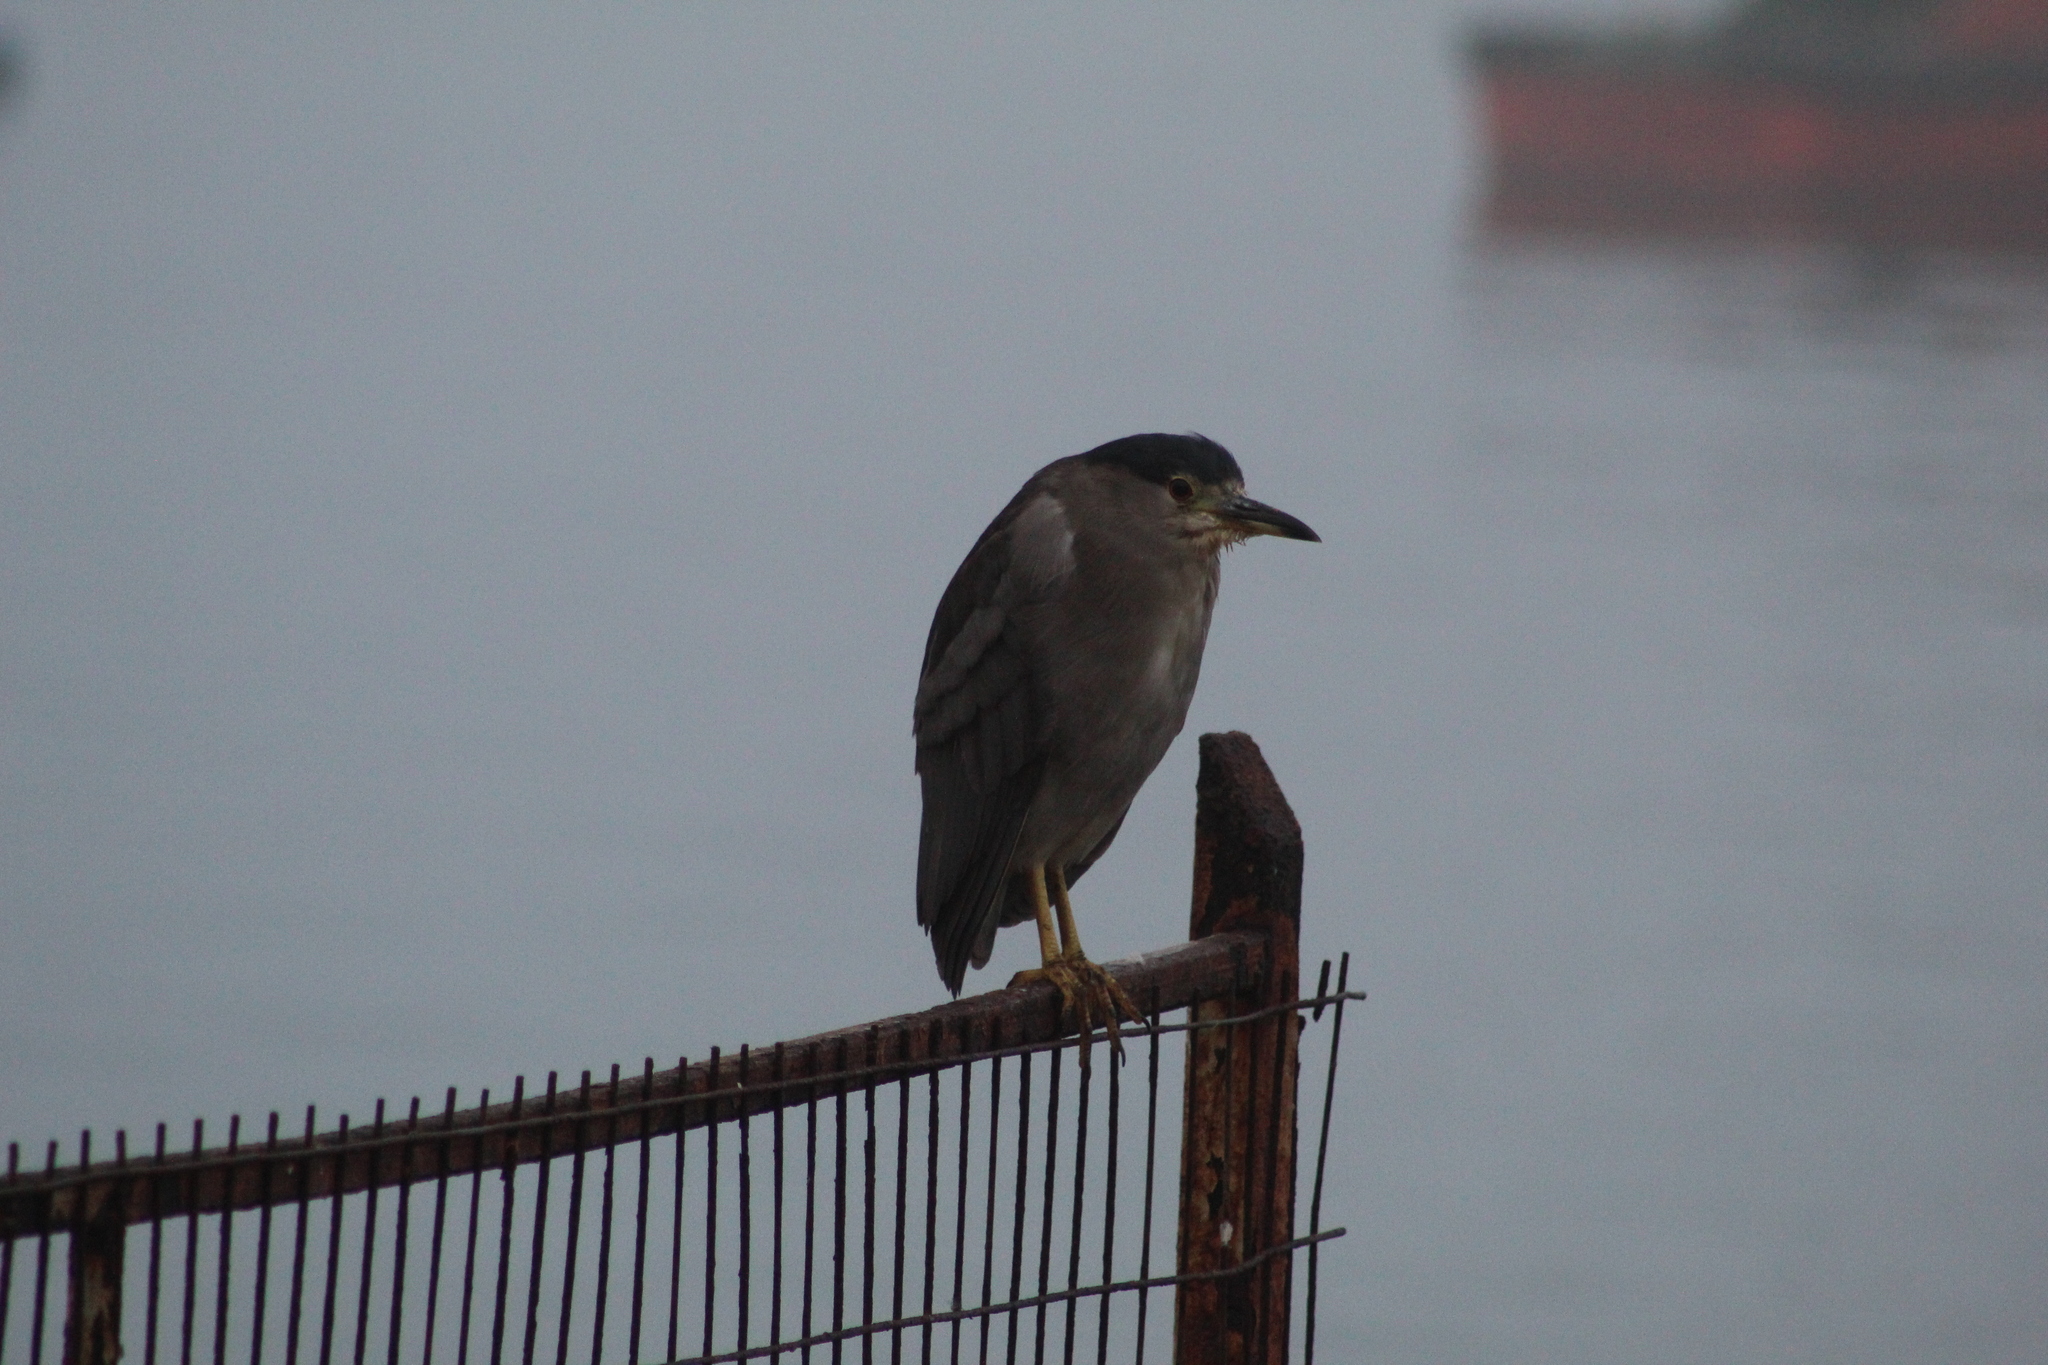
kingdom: Animalia
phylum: Chordata
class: Aves
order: Pelecaniformes
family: Ardeidae
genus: Nycticorax
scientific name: Nycticorax nycticorax
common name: Black-crowned night heron
